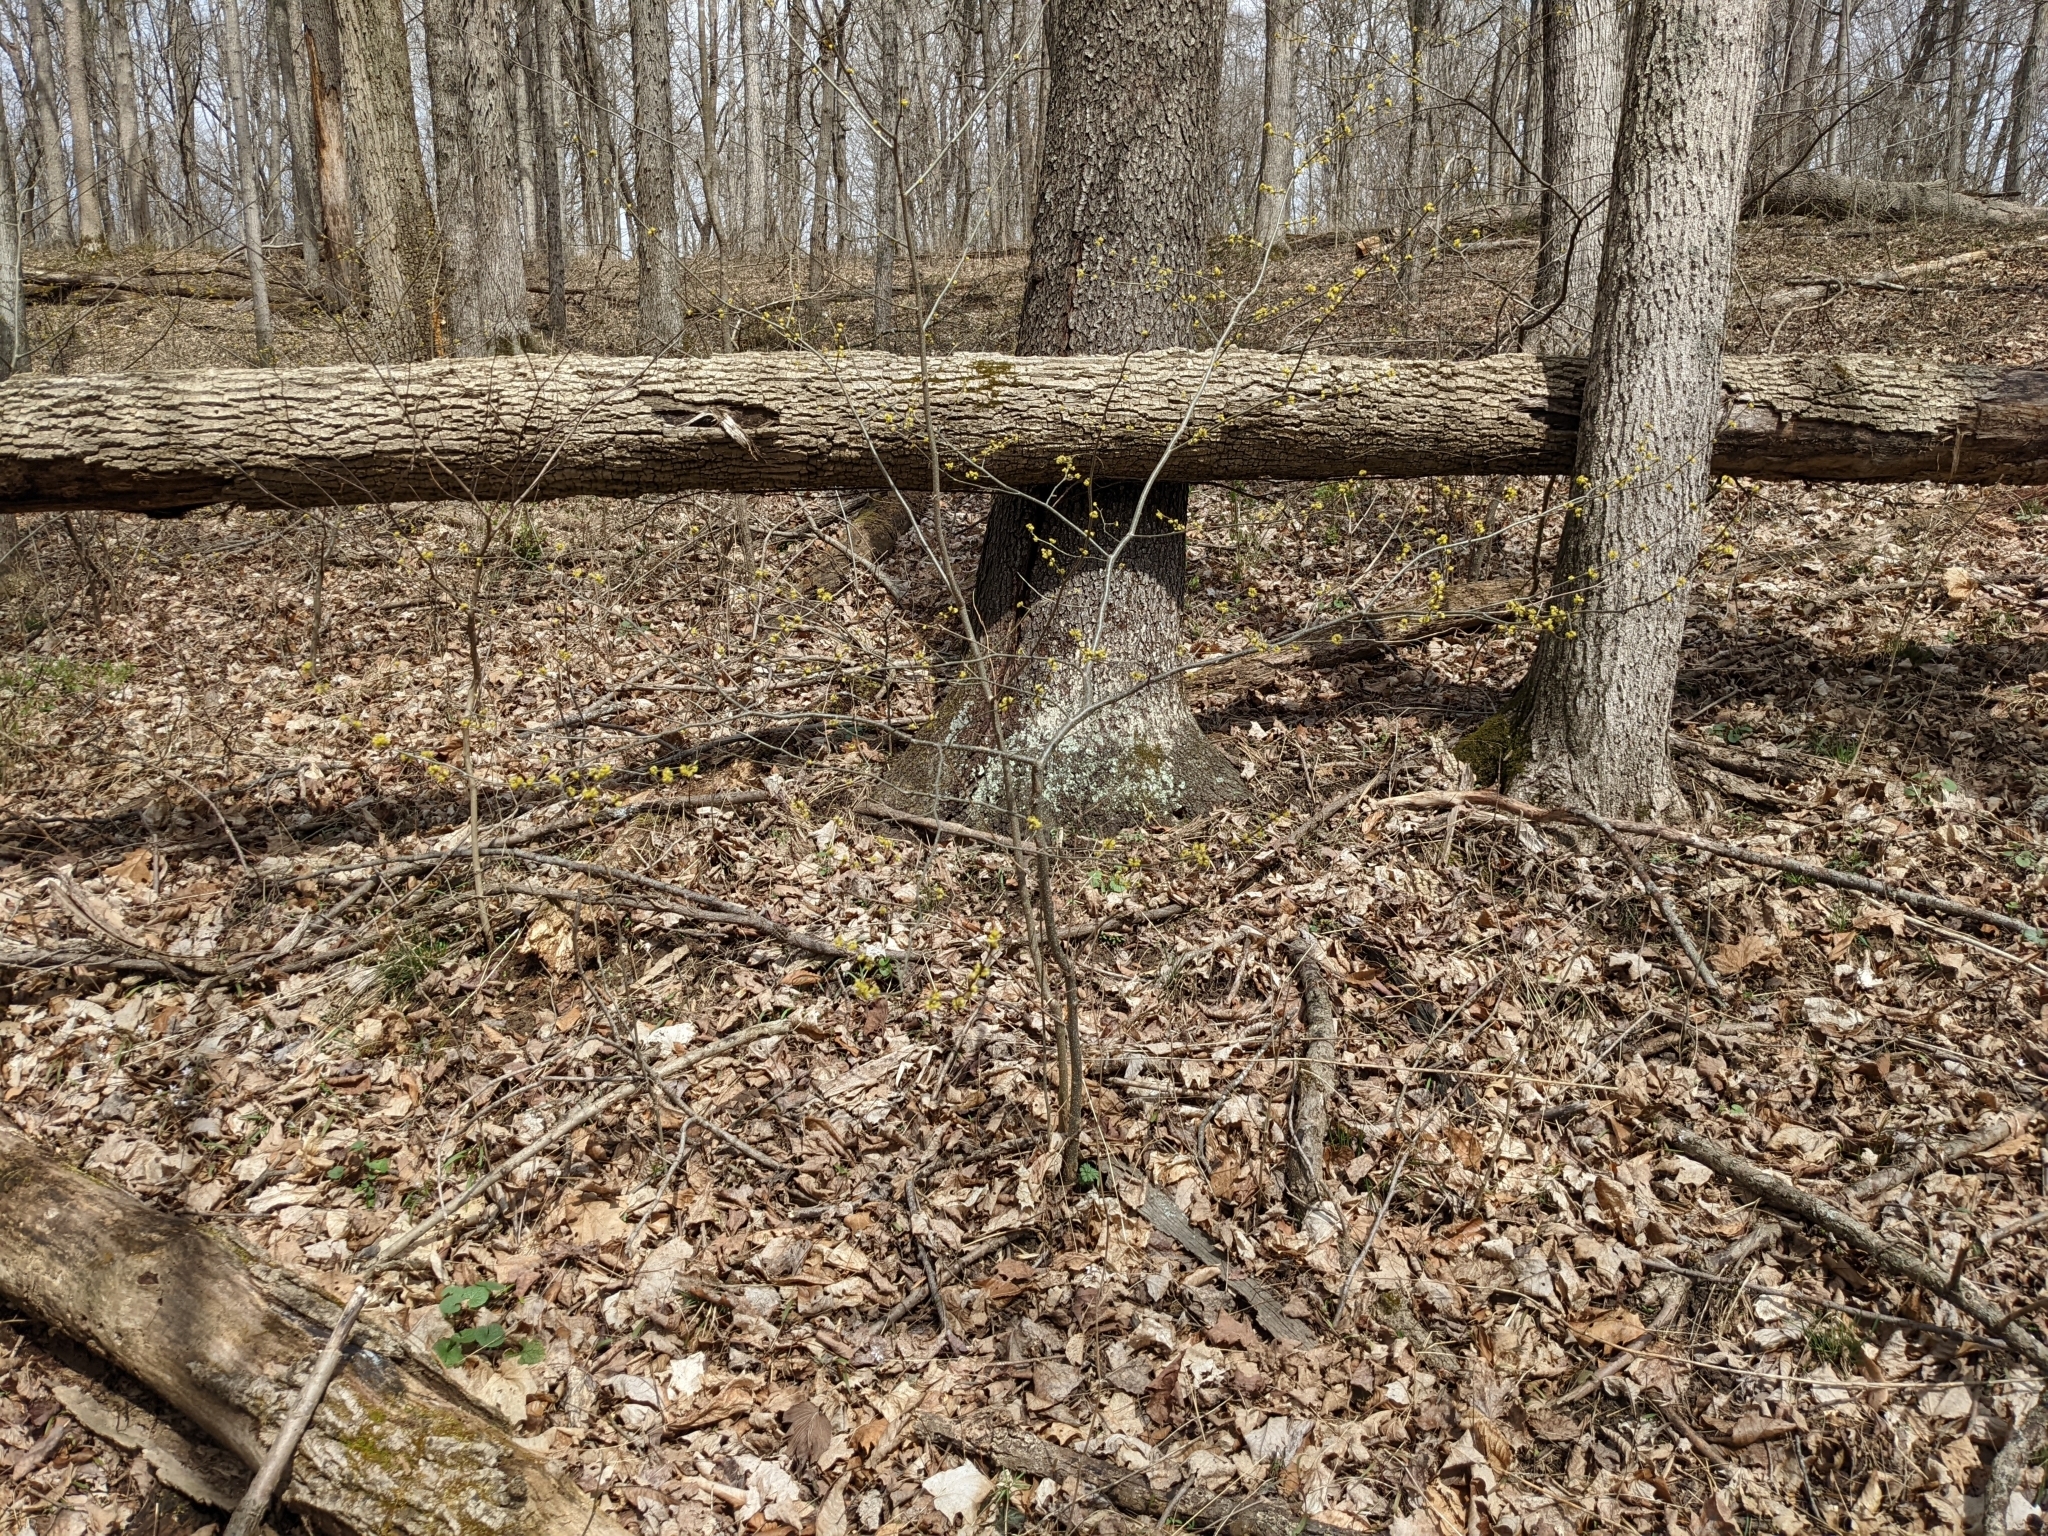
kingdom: Plantae
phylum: Tracheophyta
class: Magnoliopsida
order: Laurales
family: Lauraceae
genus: Lindera
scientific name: Lindera benzoin
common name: Spicebush
